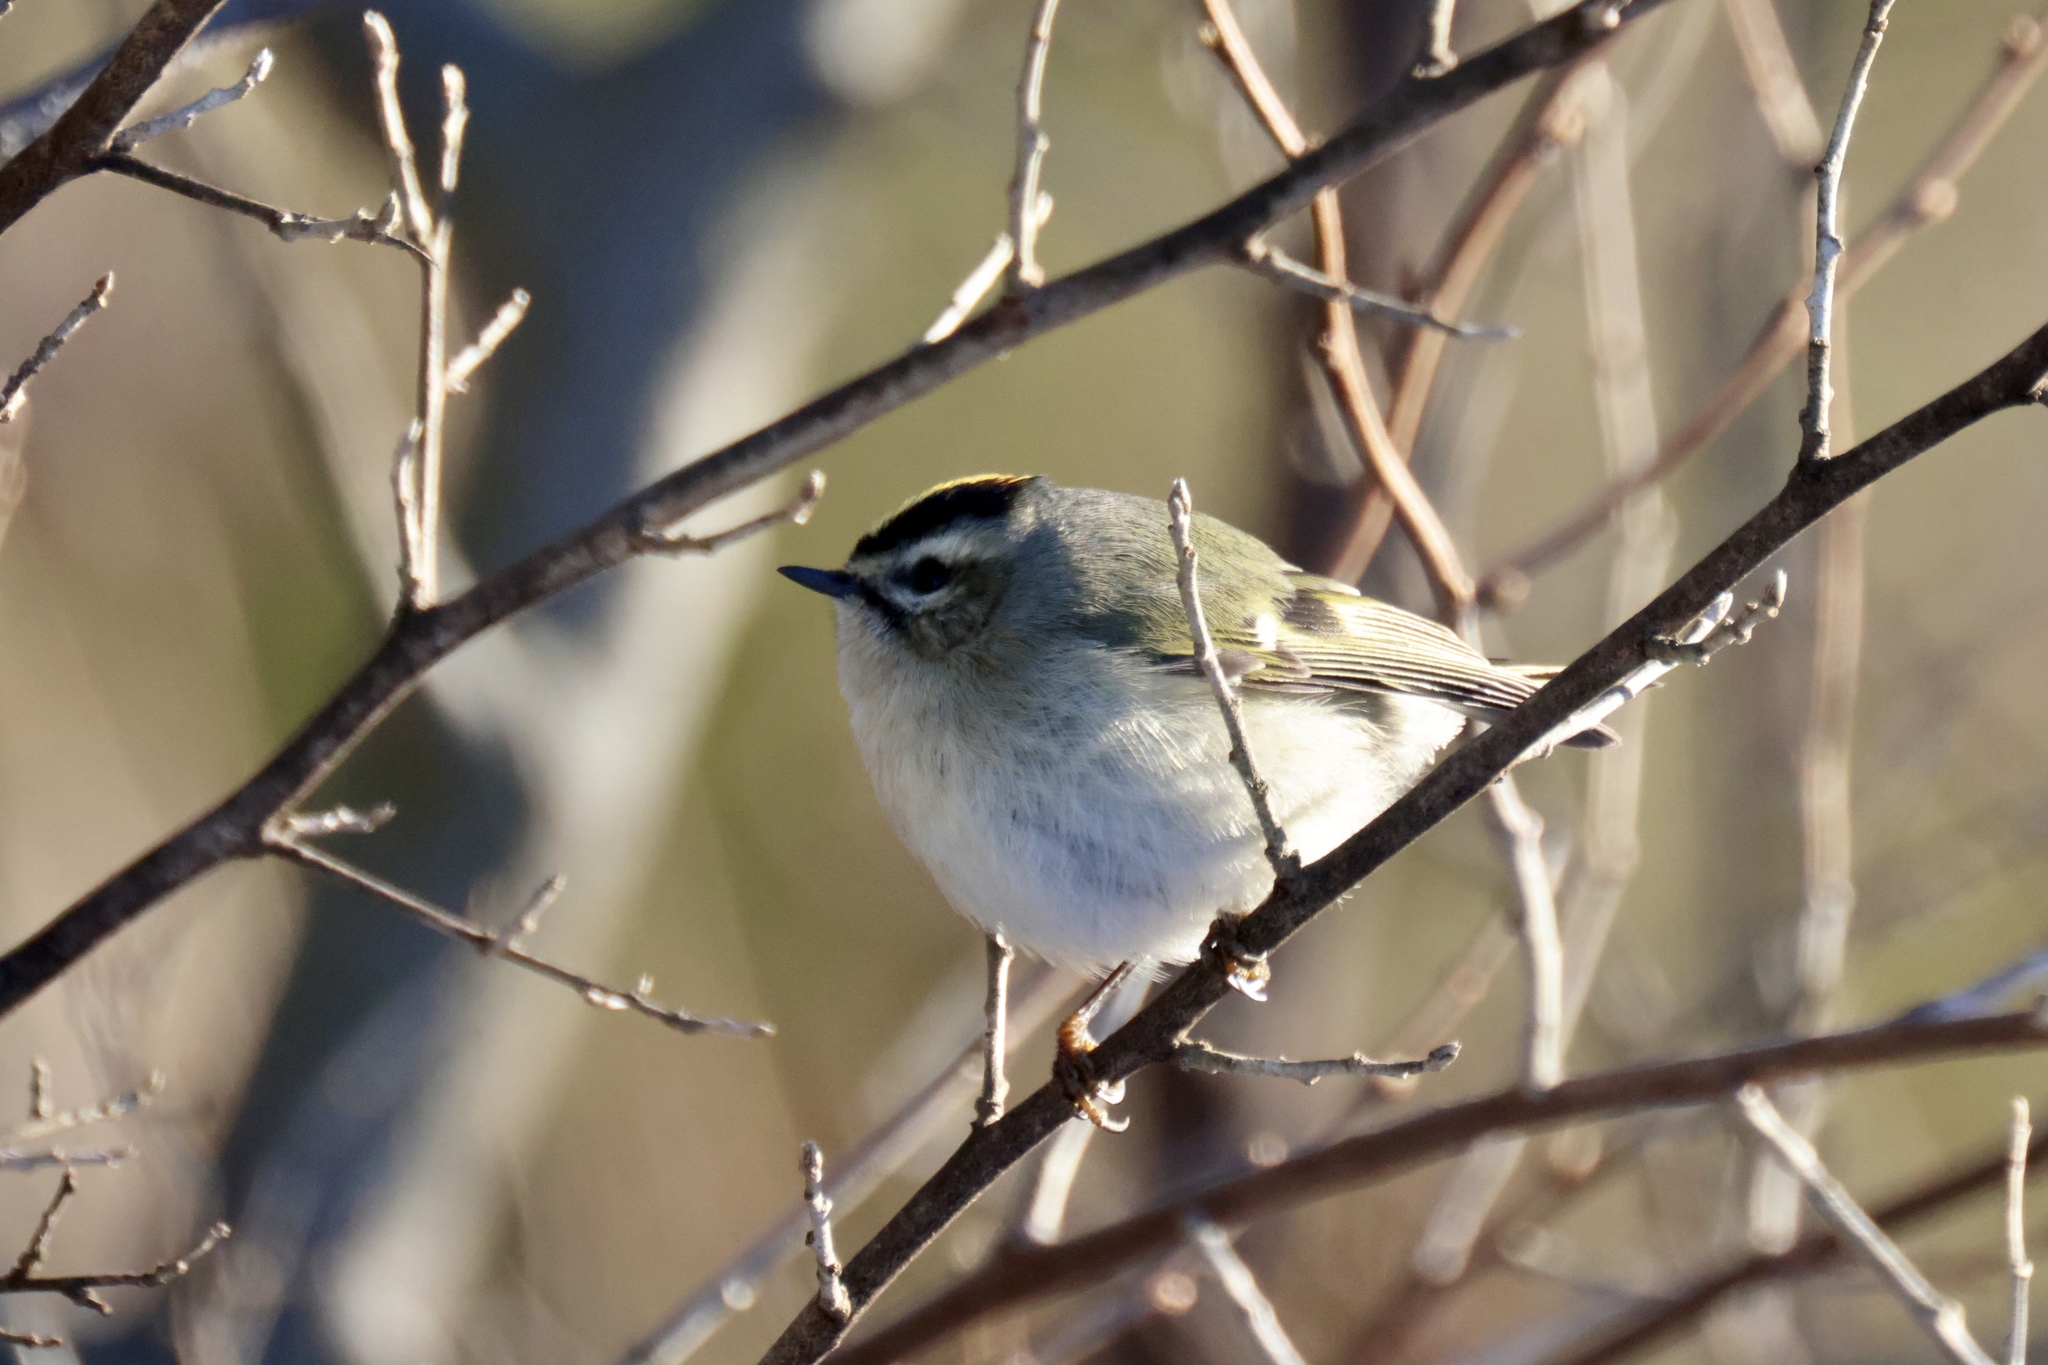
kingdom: Animalia
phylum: Chordata
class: Aves
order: Passeriformes
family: Regulidae
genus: Regulus
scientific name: Regulus satrapa
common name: Golden-crowned kinglet
